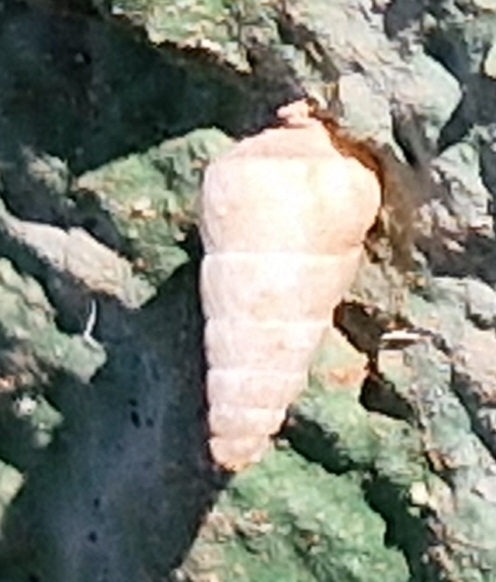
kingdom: Animalia
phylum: Mollusca
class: Gastropoda
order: Stylommatophora
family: Geomitridae
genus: Cochlicella
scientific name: Cochlicella acuta
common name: Pointed snail
